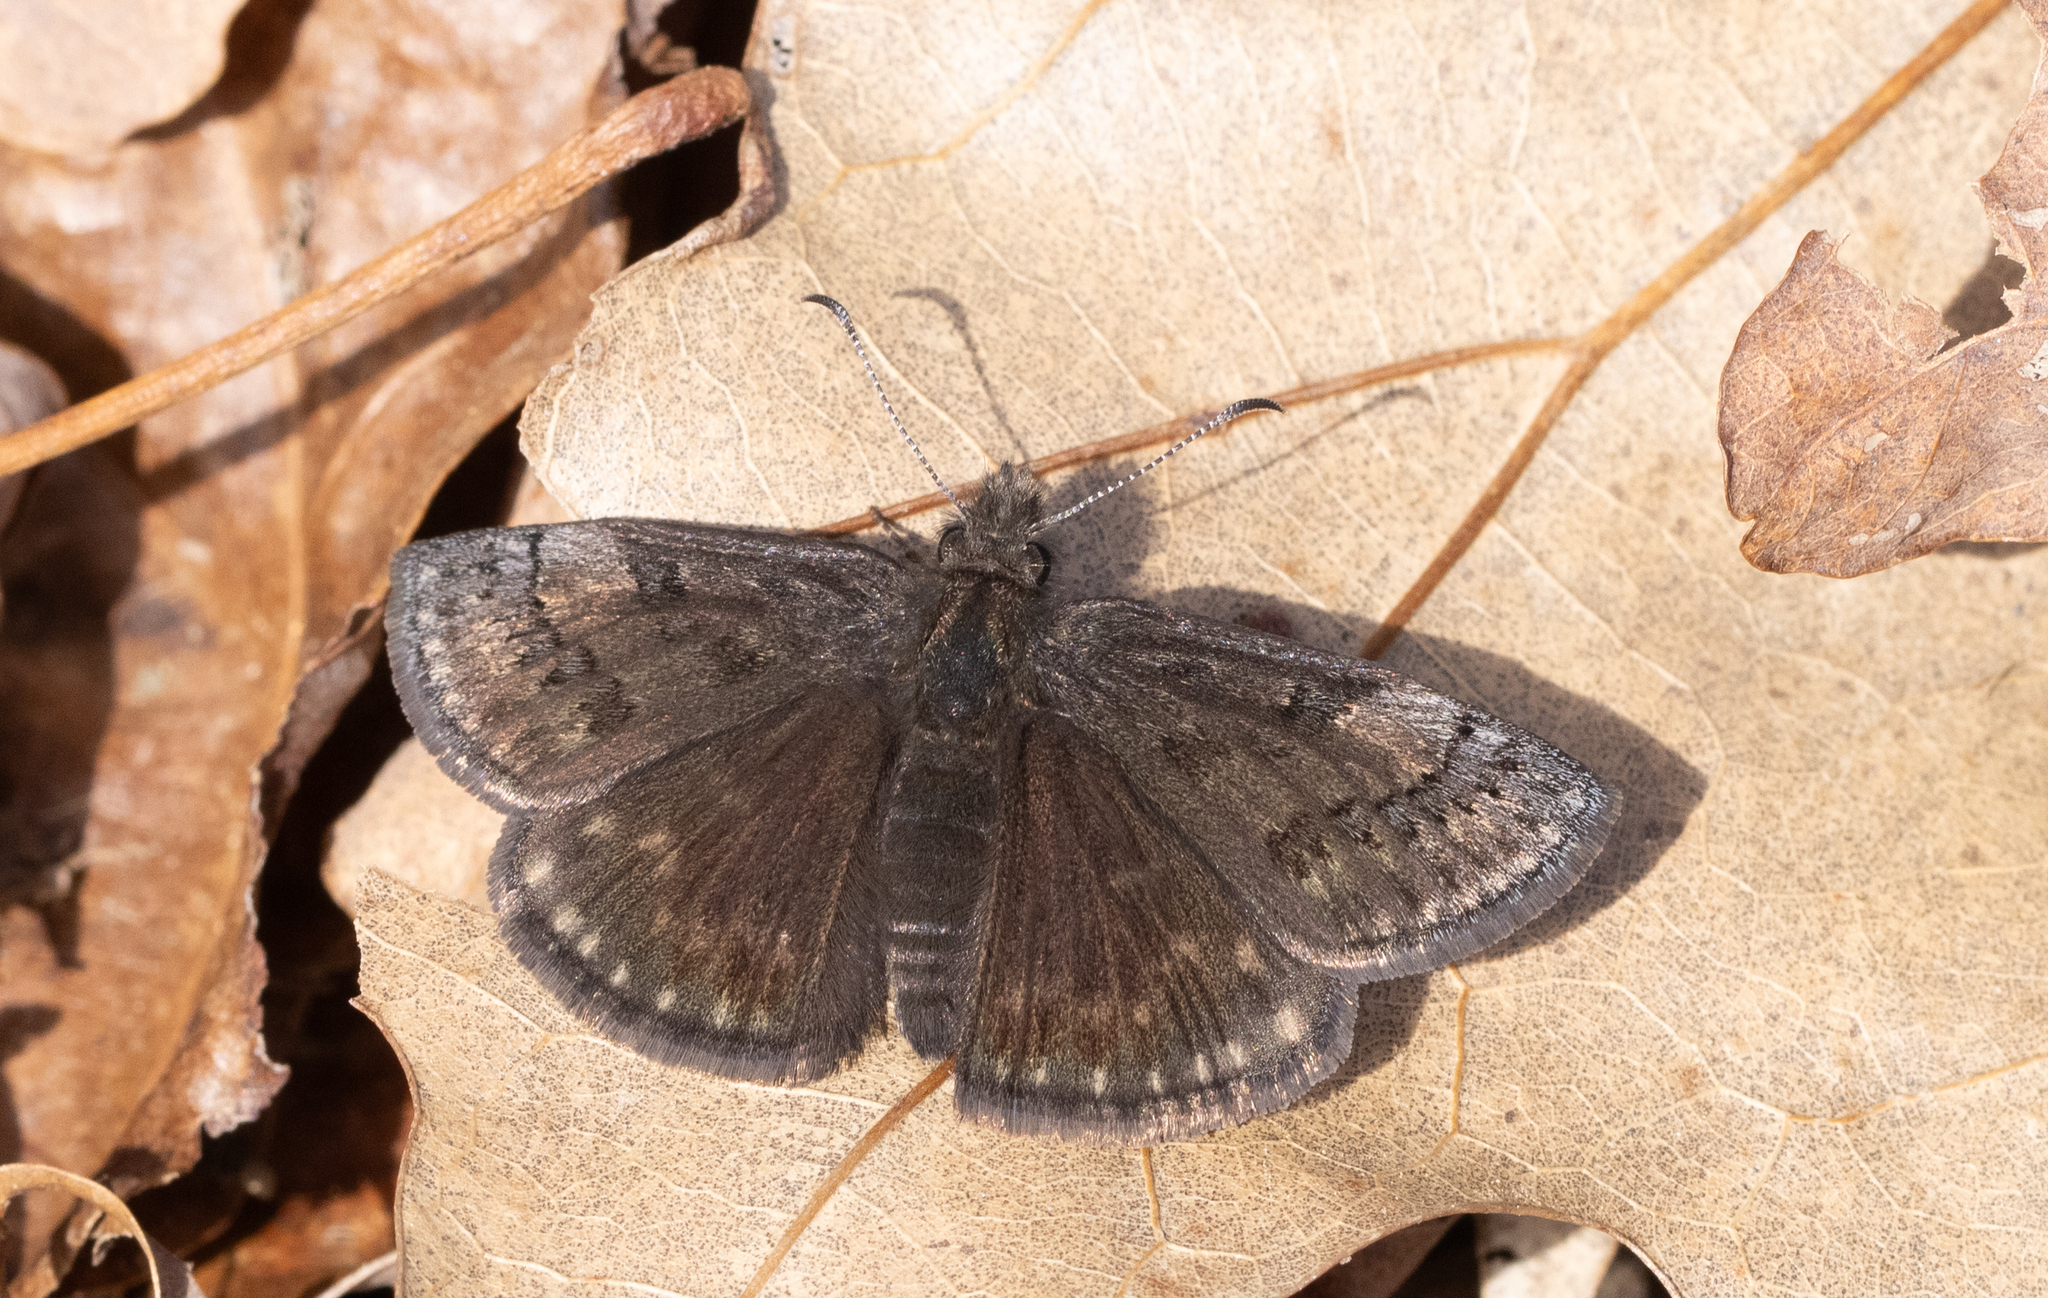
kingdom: Animalia
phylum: Arthropoda
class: Insecta
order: Lepidoptera
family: Hesperiidae
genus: Erynnis
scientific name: Erynnis brizo
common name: Sleepy duskywing
